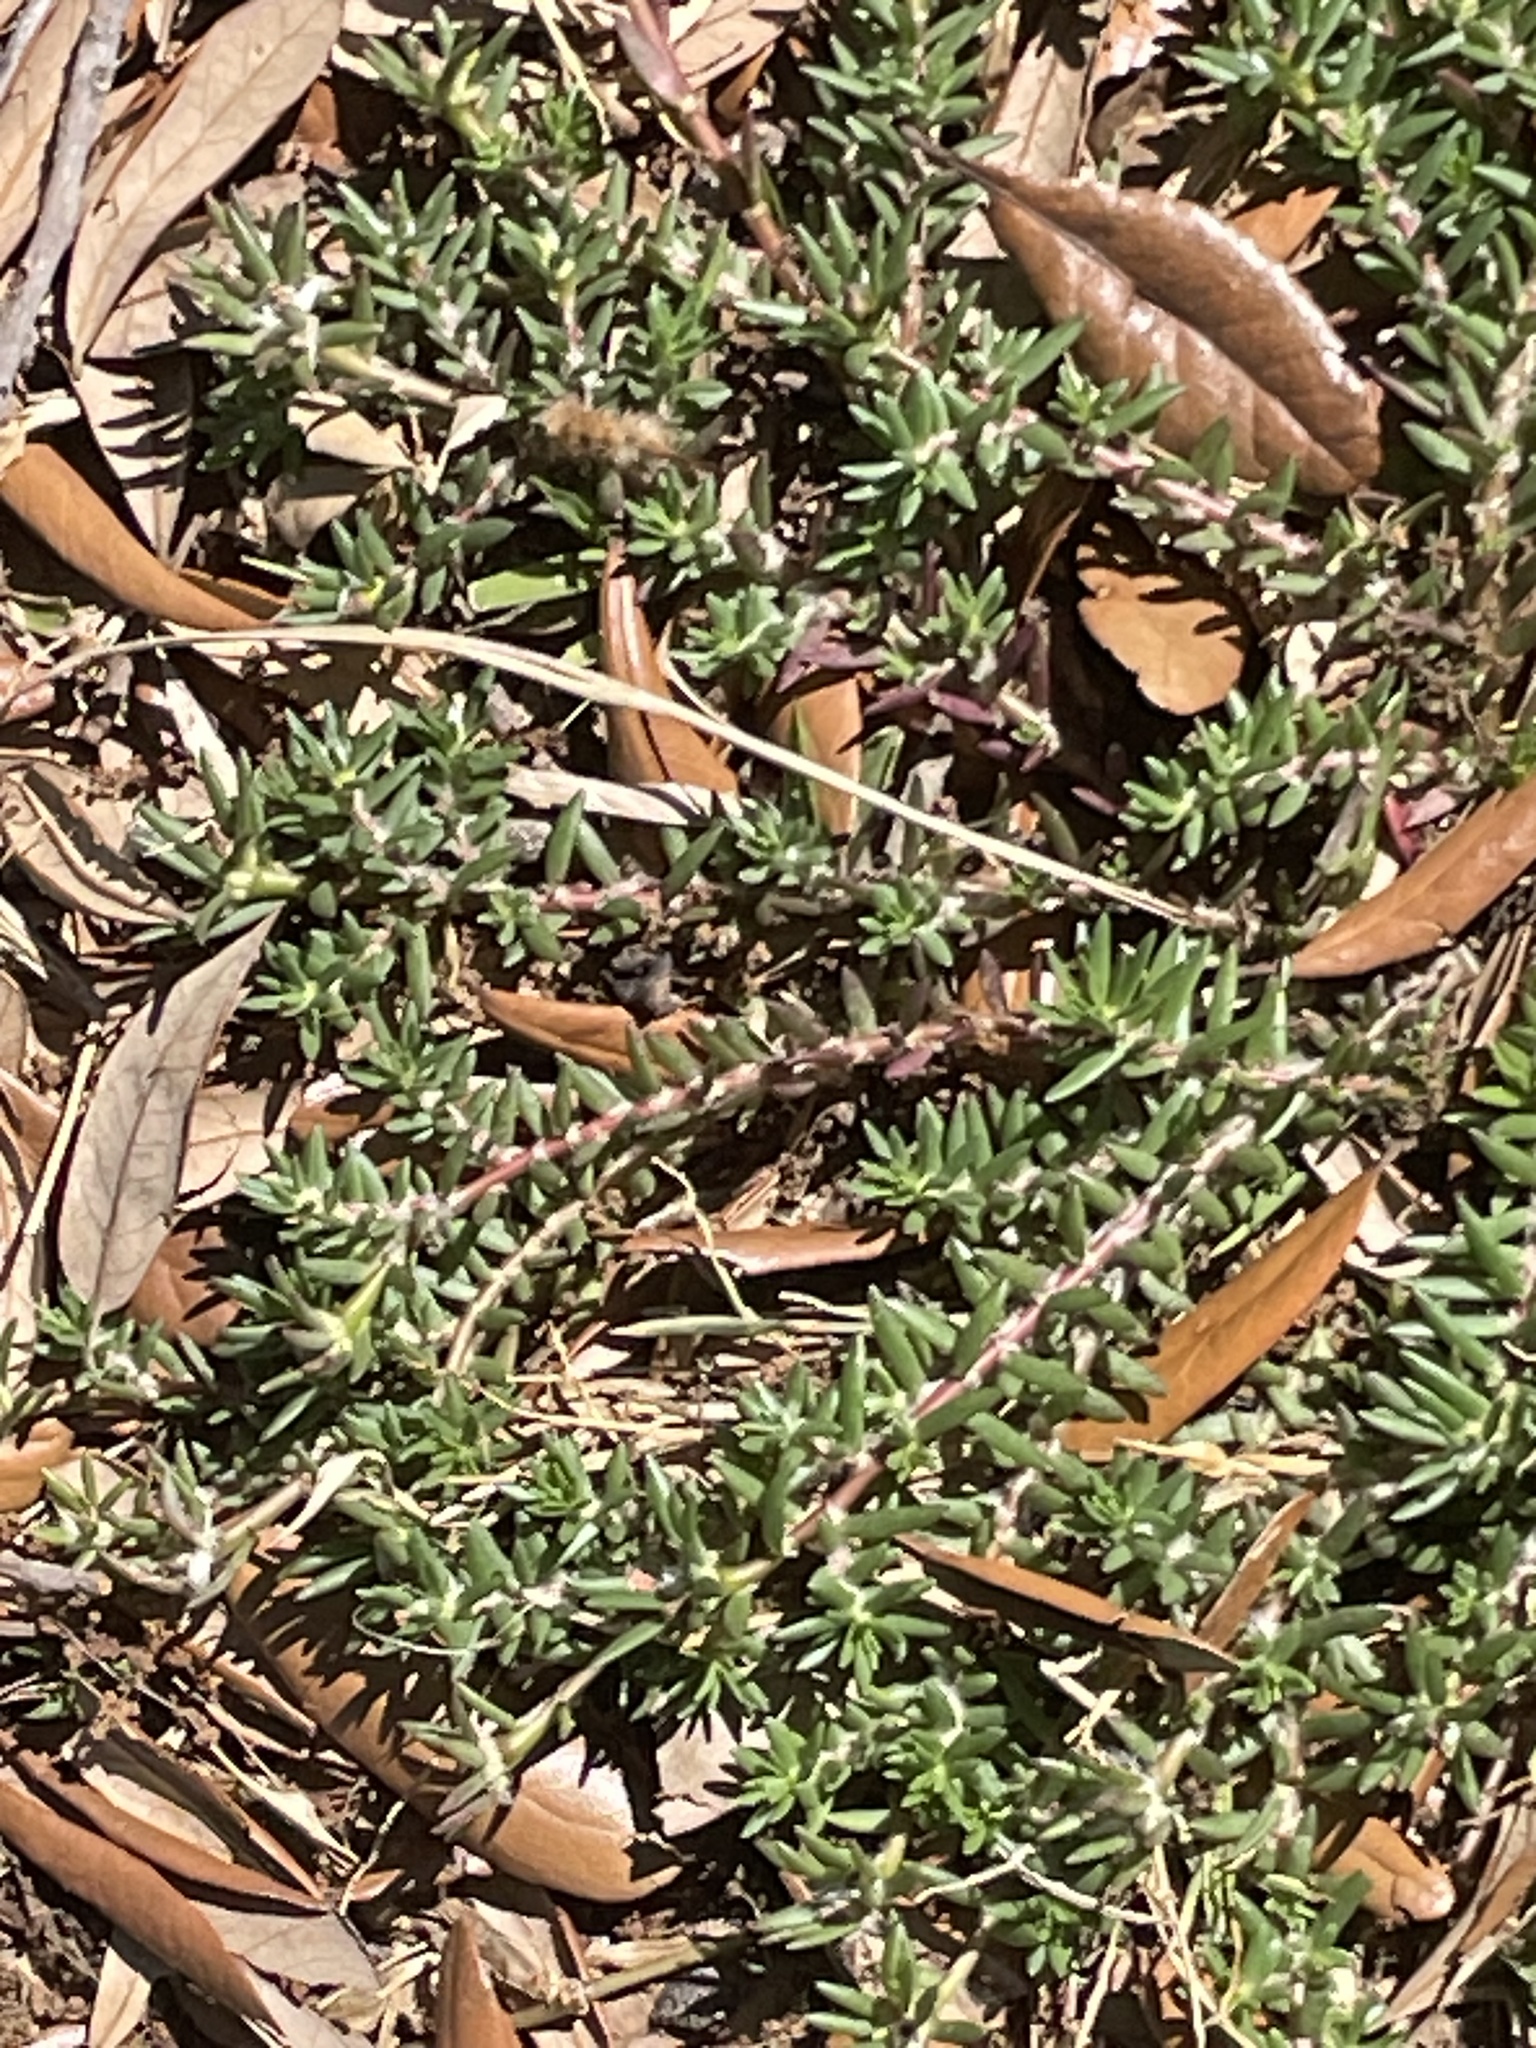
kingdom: Plantae
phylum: Tracheophyta
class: Magnoliopsida
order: Caryophyllales
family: Portulacaceae
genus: Portulaca
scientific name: Portulaca pilosa
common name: Kiss me quick
